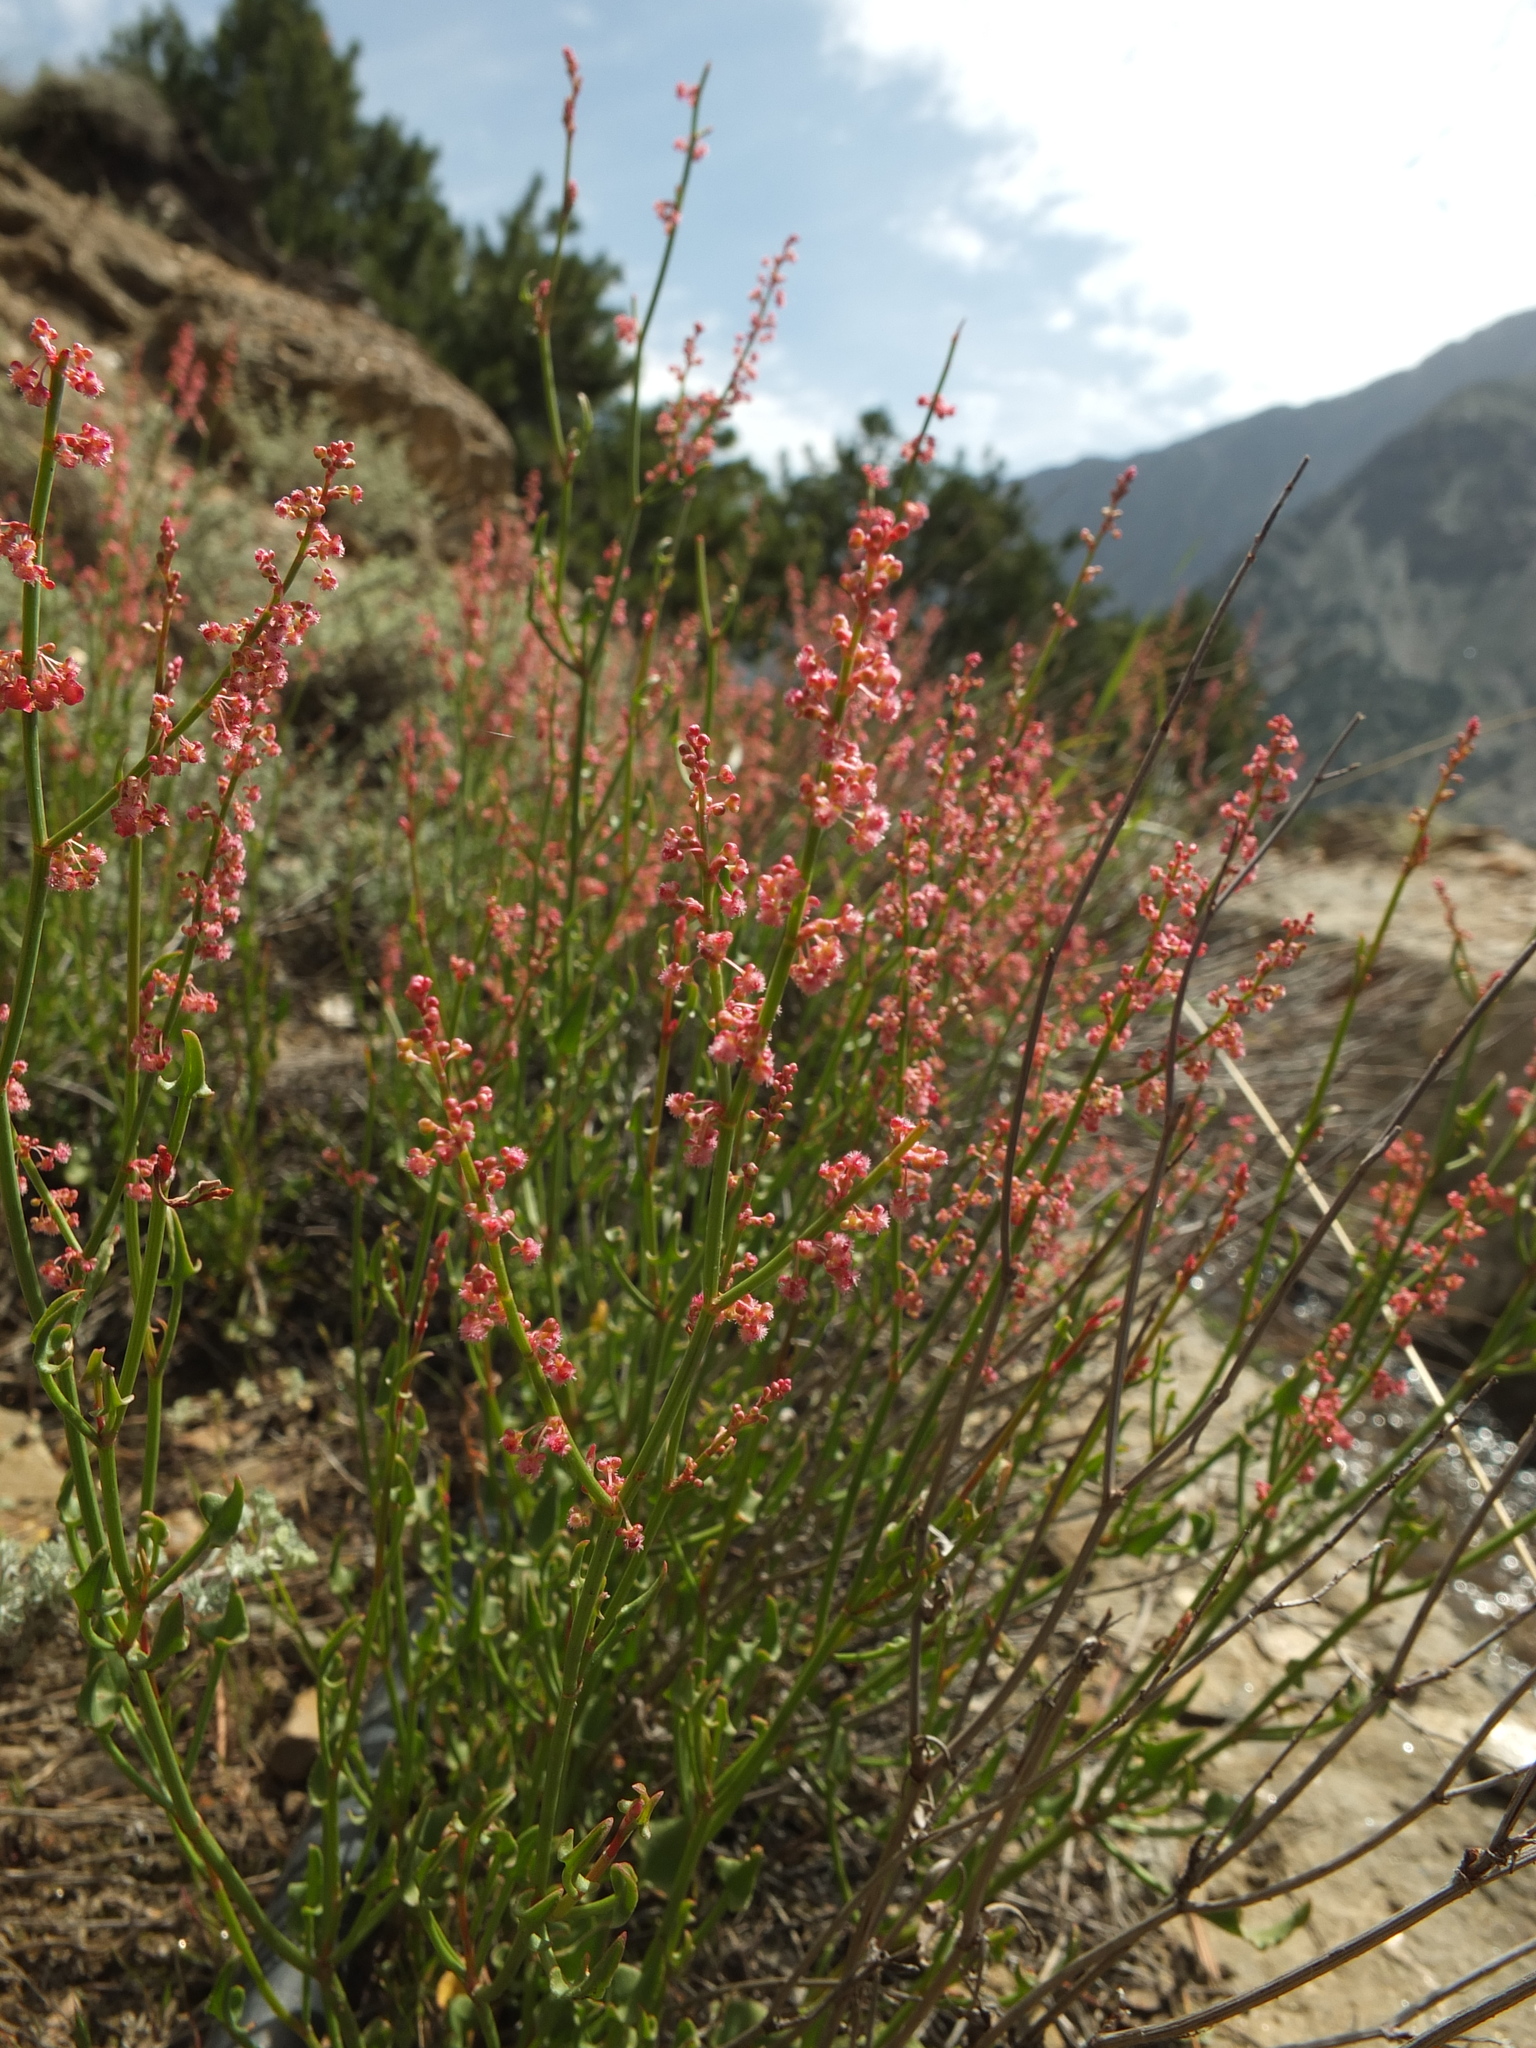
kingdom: Plantae
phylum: Tracheophyta
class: Magnoliopsida
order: Caryophyllales
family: Polygonaceae
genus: Rumex
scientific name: Rumex hastatus
